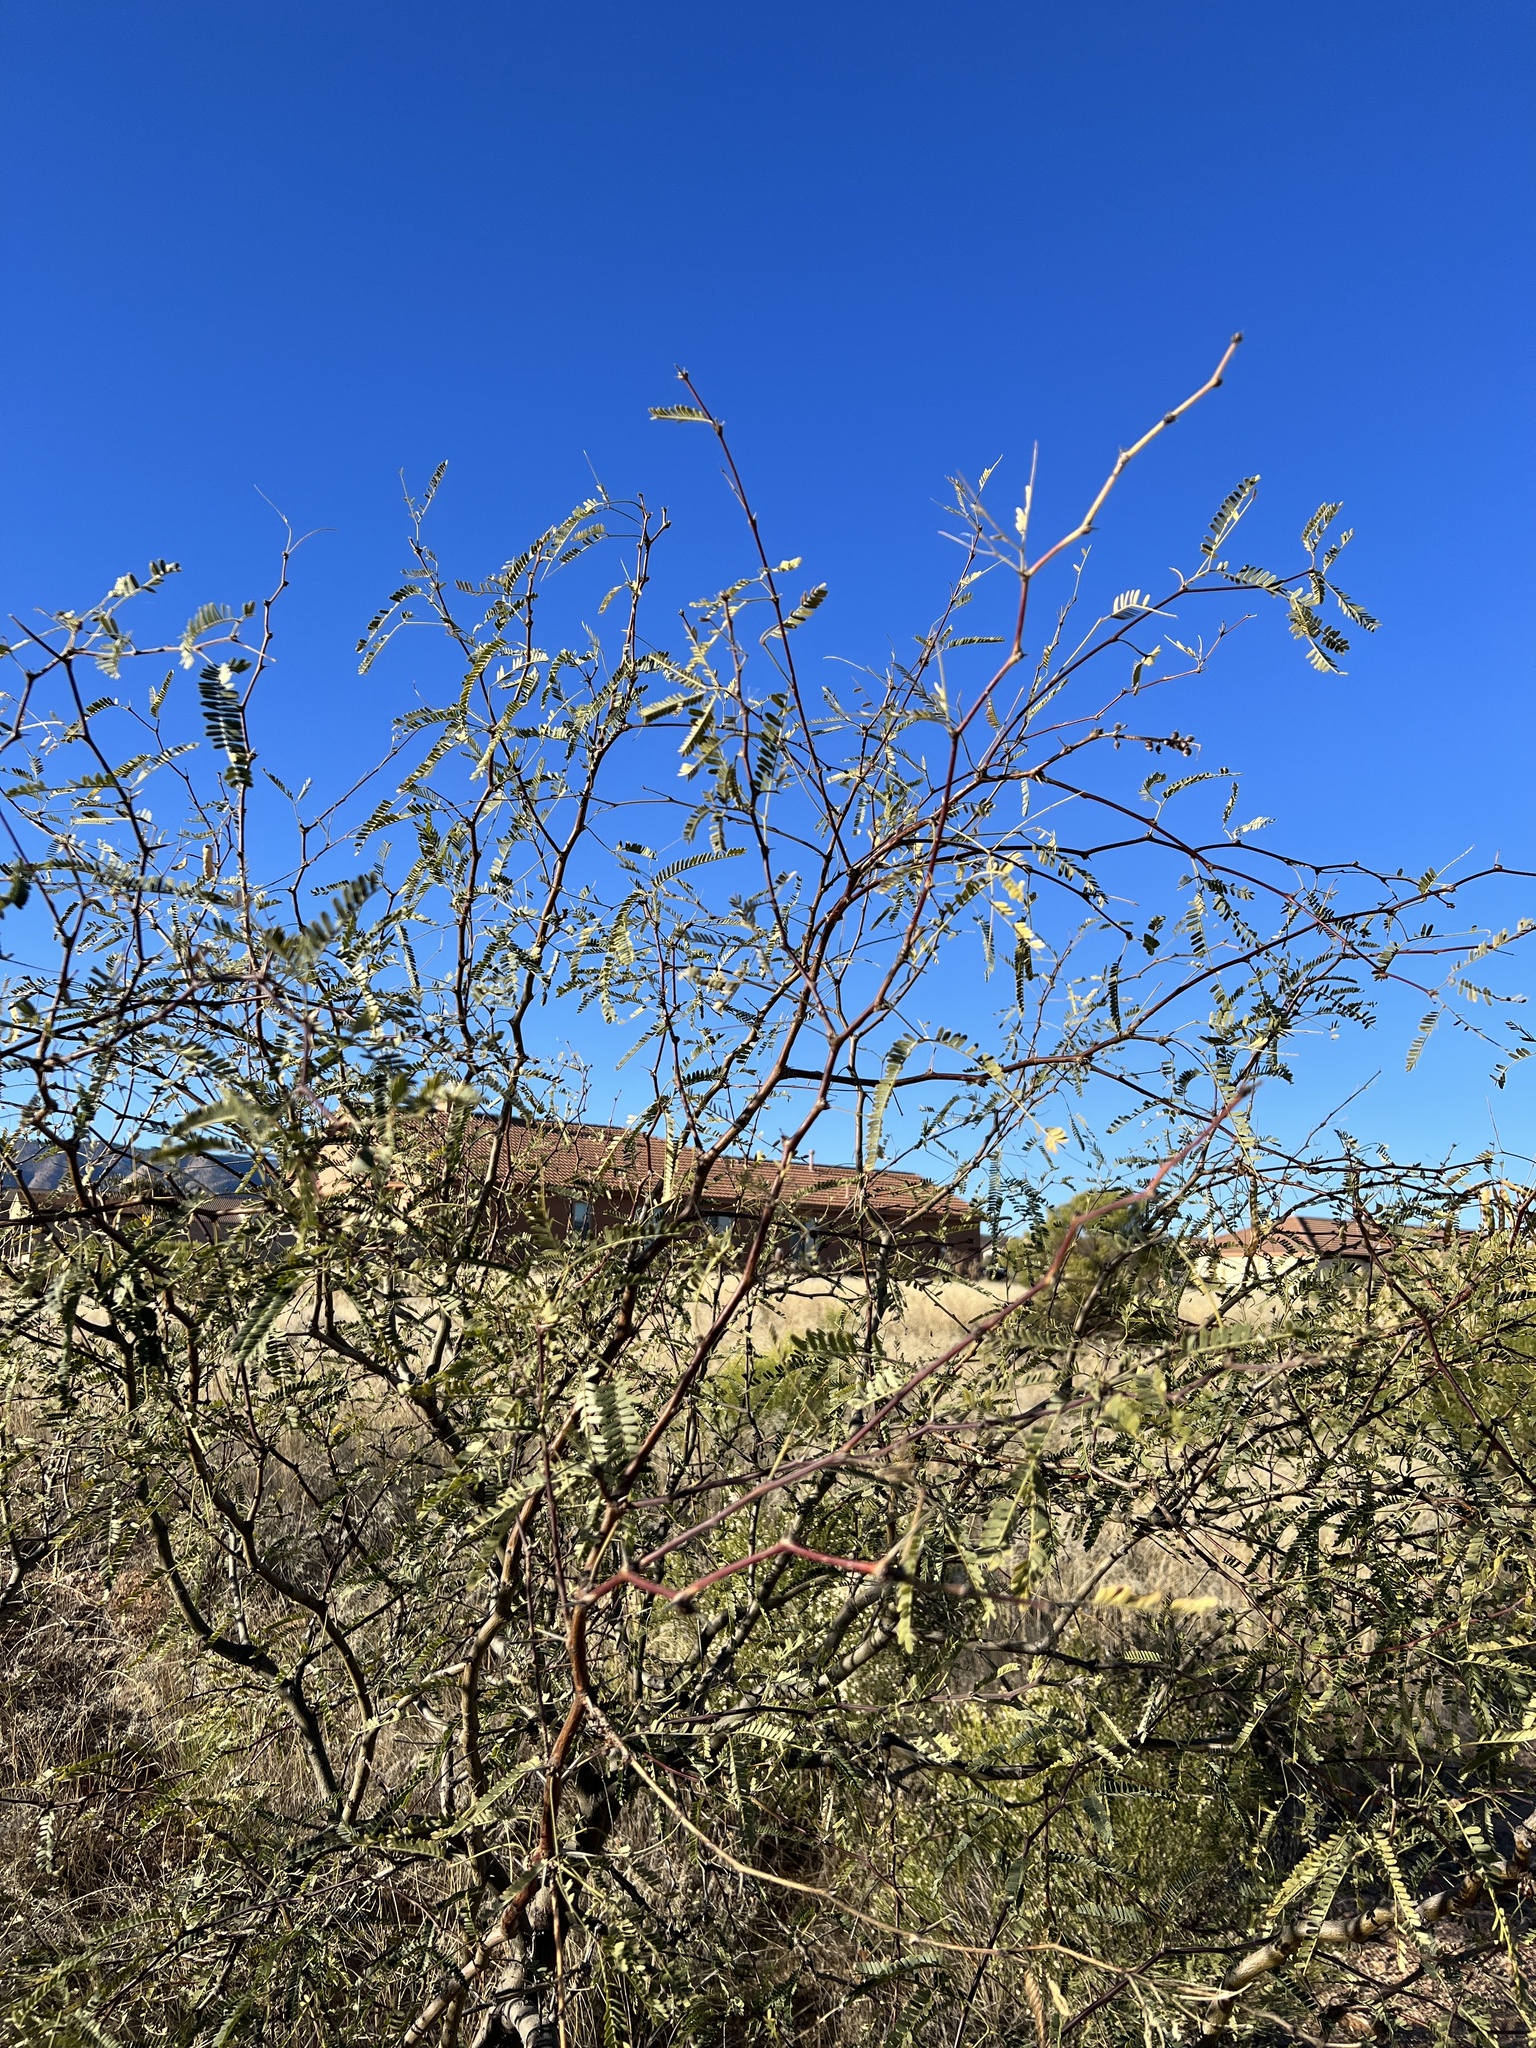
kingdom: Plantae
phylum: Tracheophyta
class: Magnoliopsida
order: Fabales
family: Fabaceae
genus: Prosopis
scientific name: Prosopis velutina
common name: Velvet mesquite
